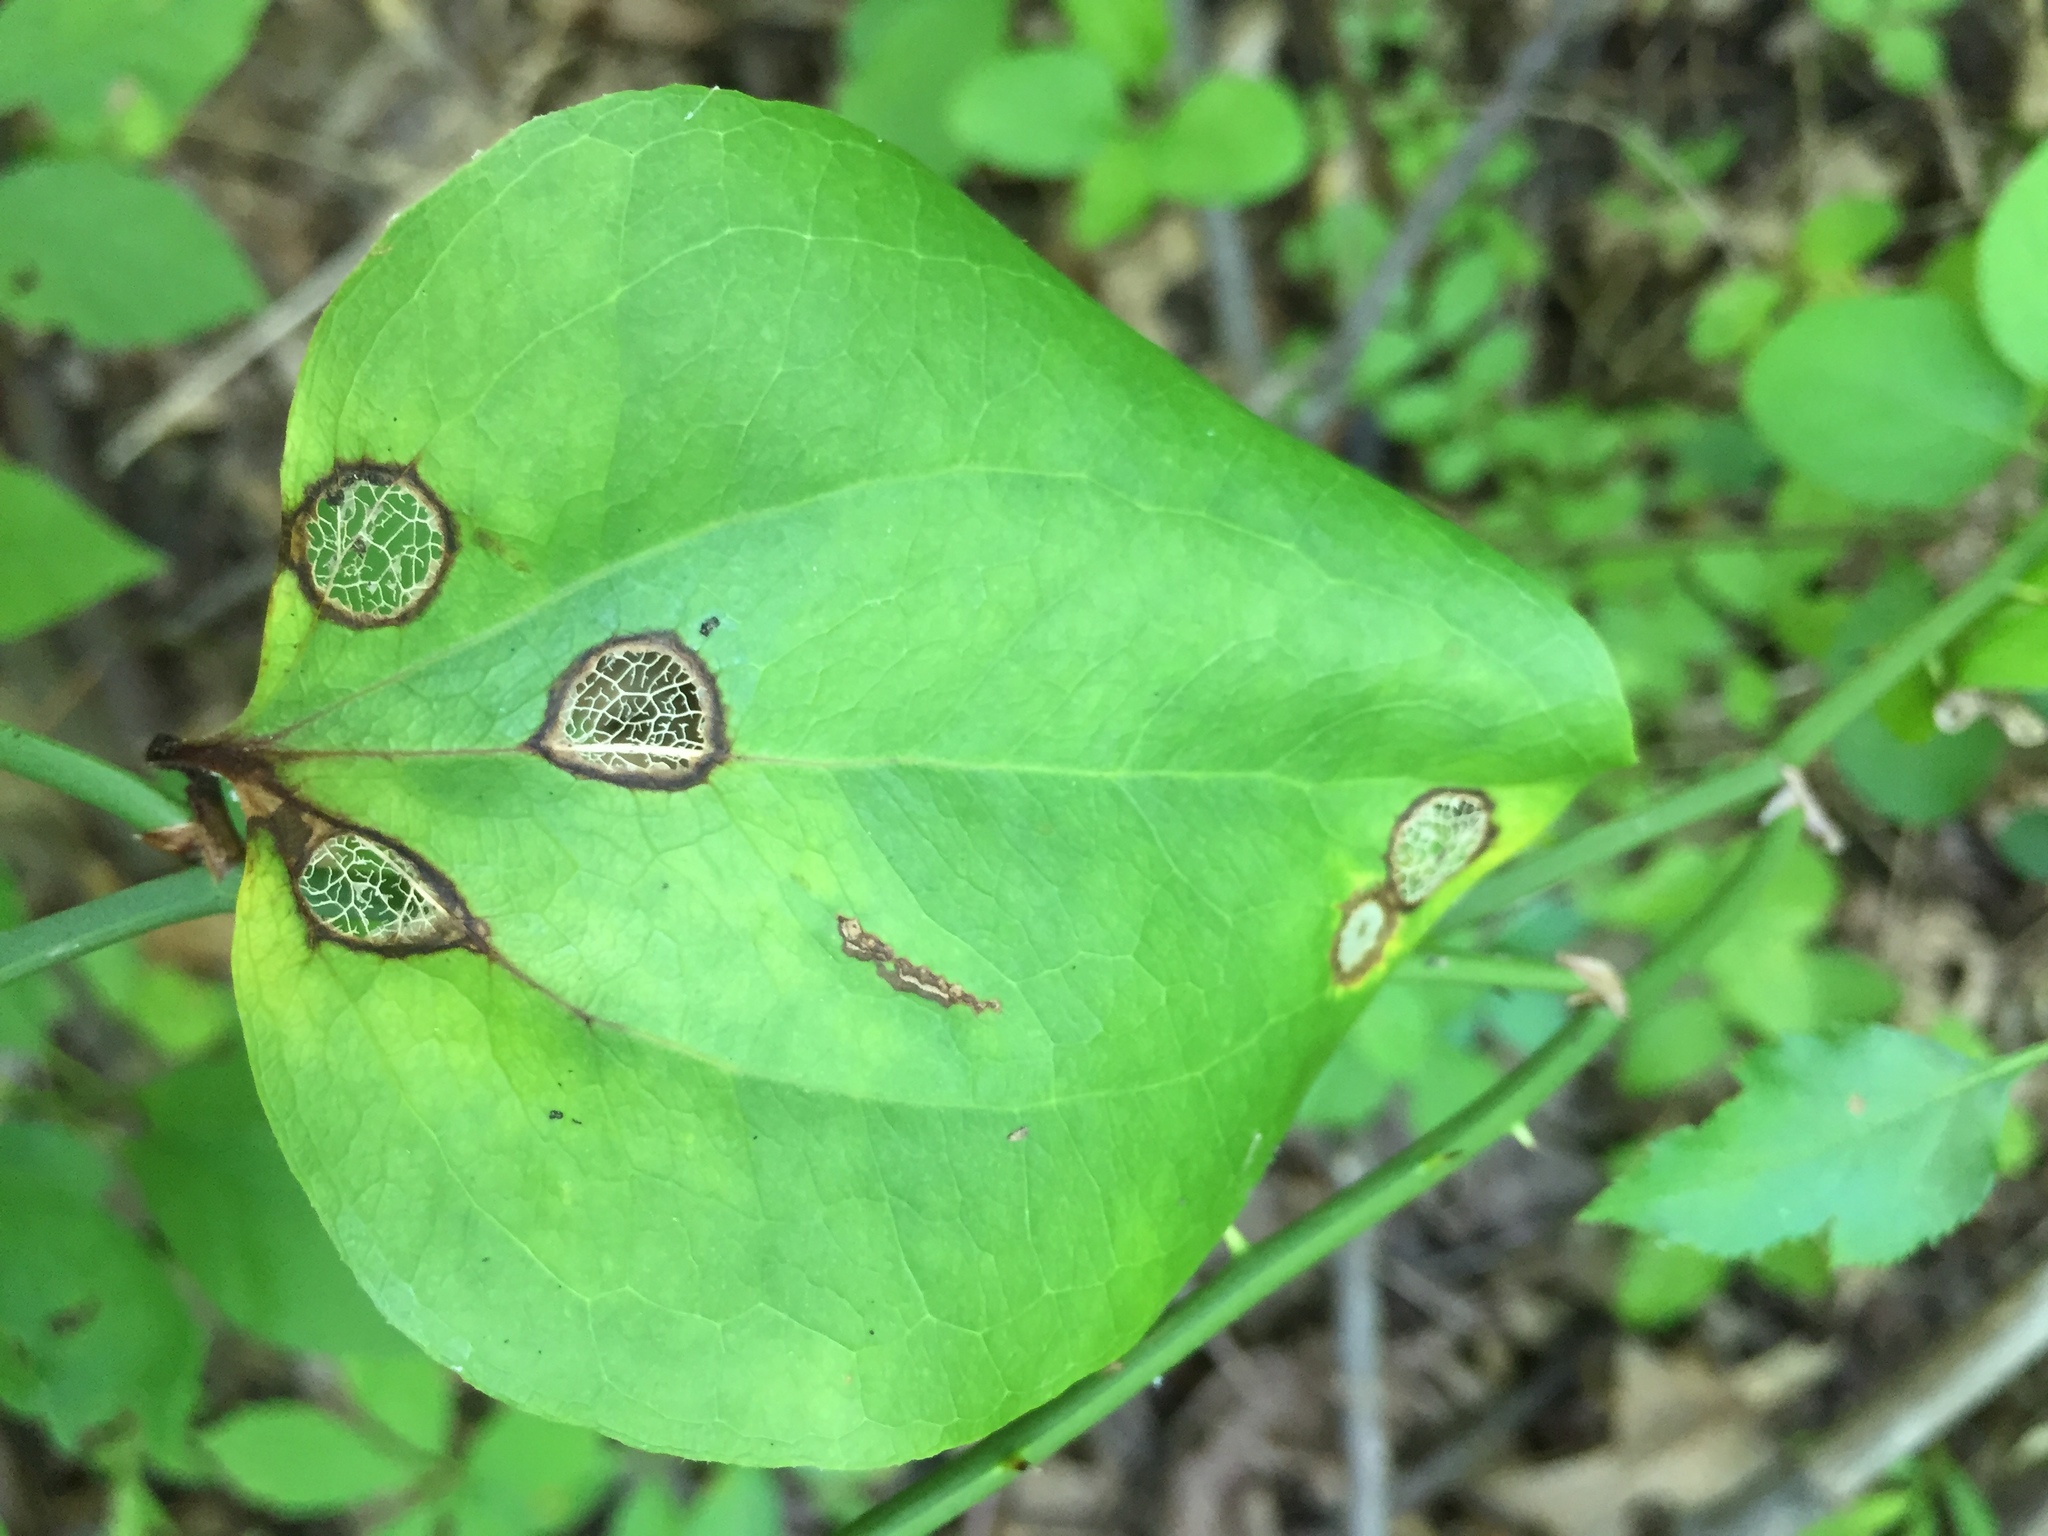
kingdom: Plantae
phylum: Tracheophyta
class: Liliopsida
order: Liliales
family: Smilacaceae
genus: Smilax
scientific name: Smilax rotundifolia
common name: Bullbriar
